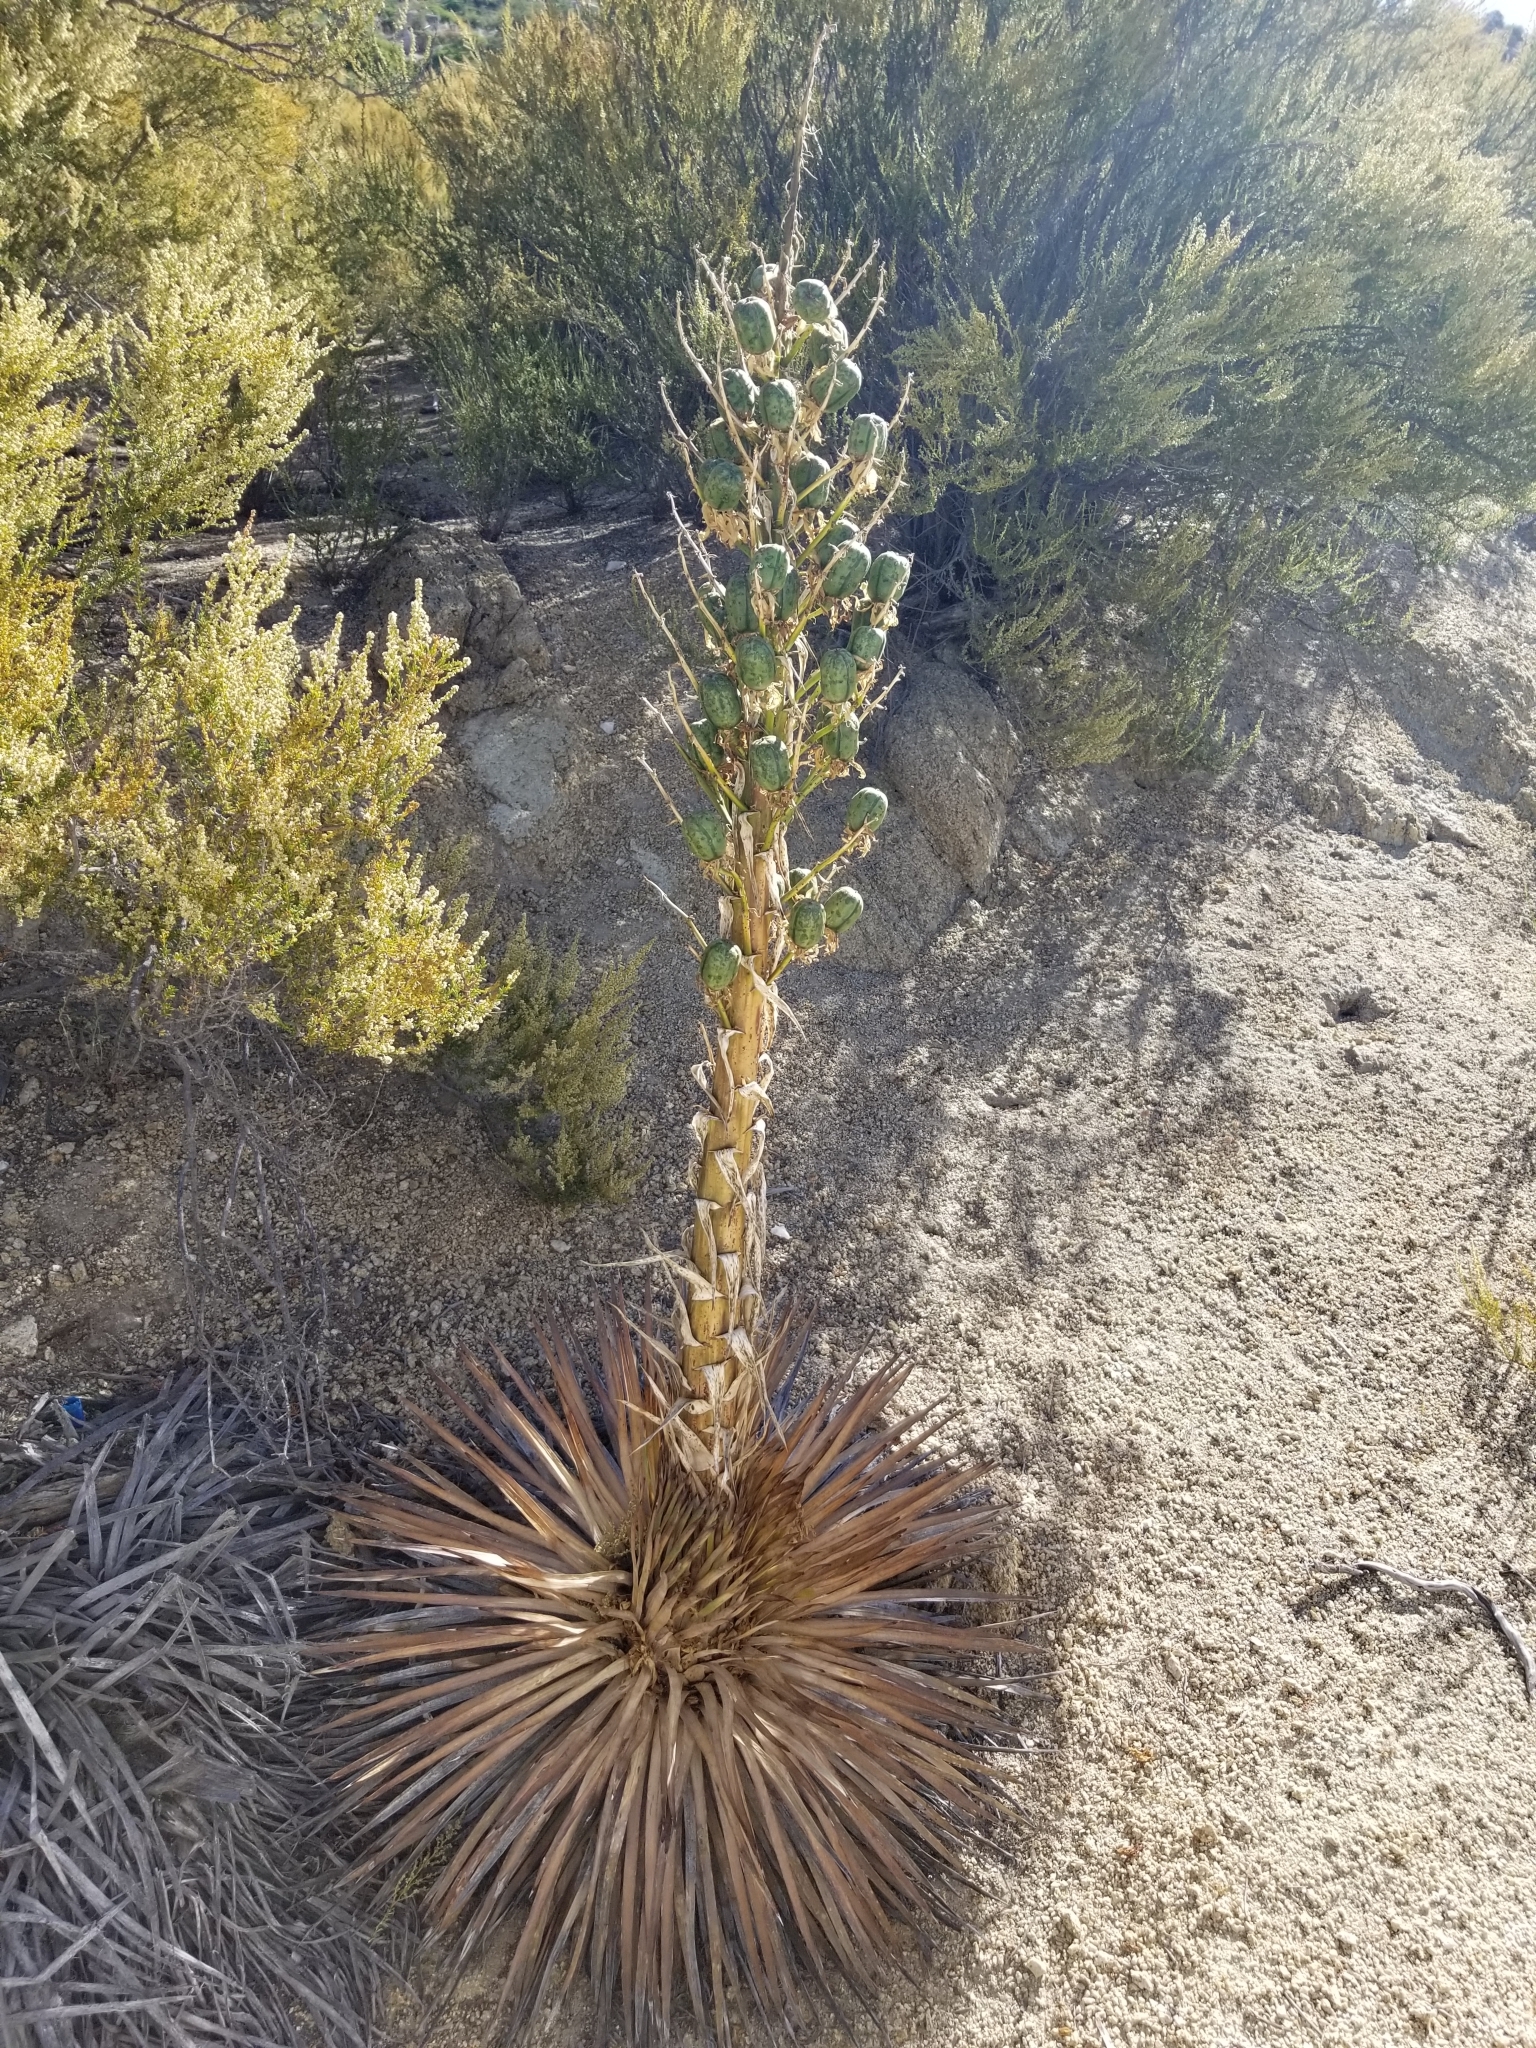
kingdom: Plantae
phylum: Tracheophyta
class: Liliopsida
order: Asparagales
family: Asparagaceae
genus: Hesperoyucca
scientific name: Hesperoyucca whipplei
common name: Our lord's-candle
